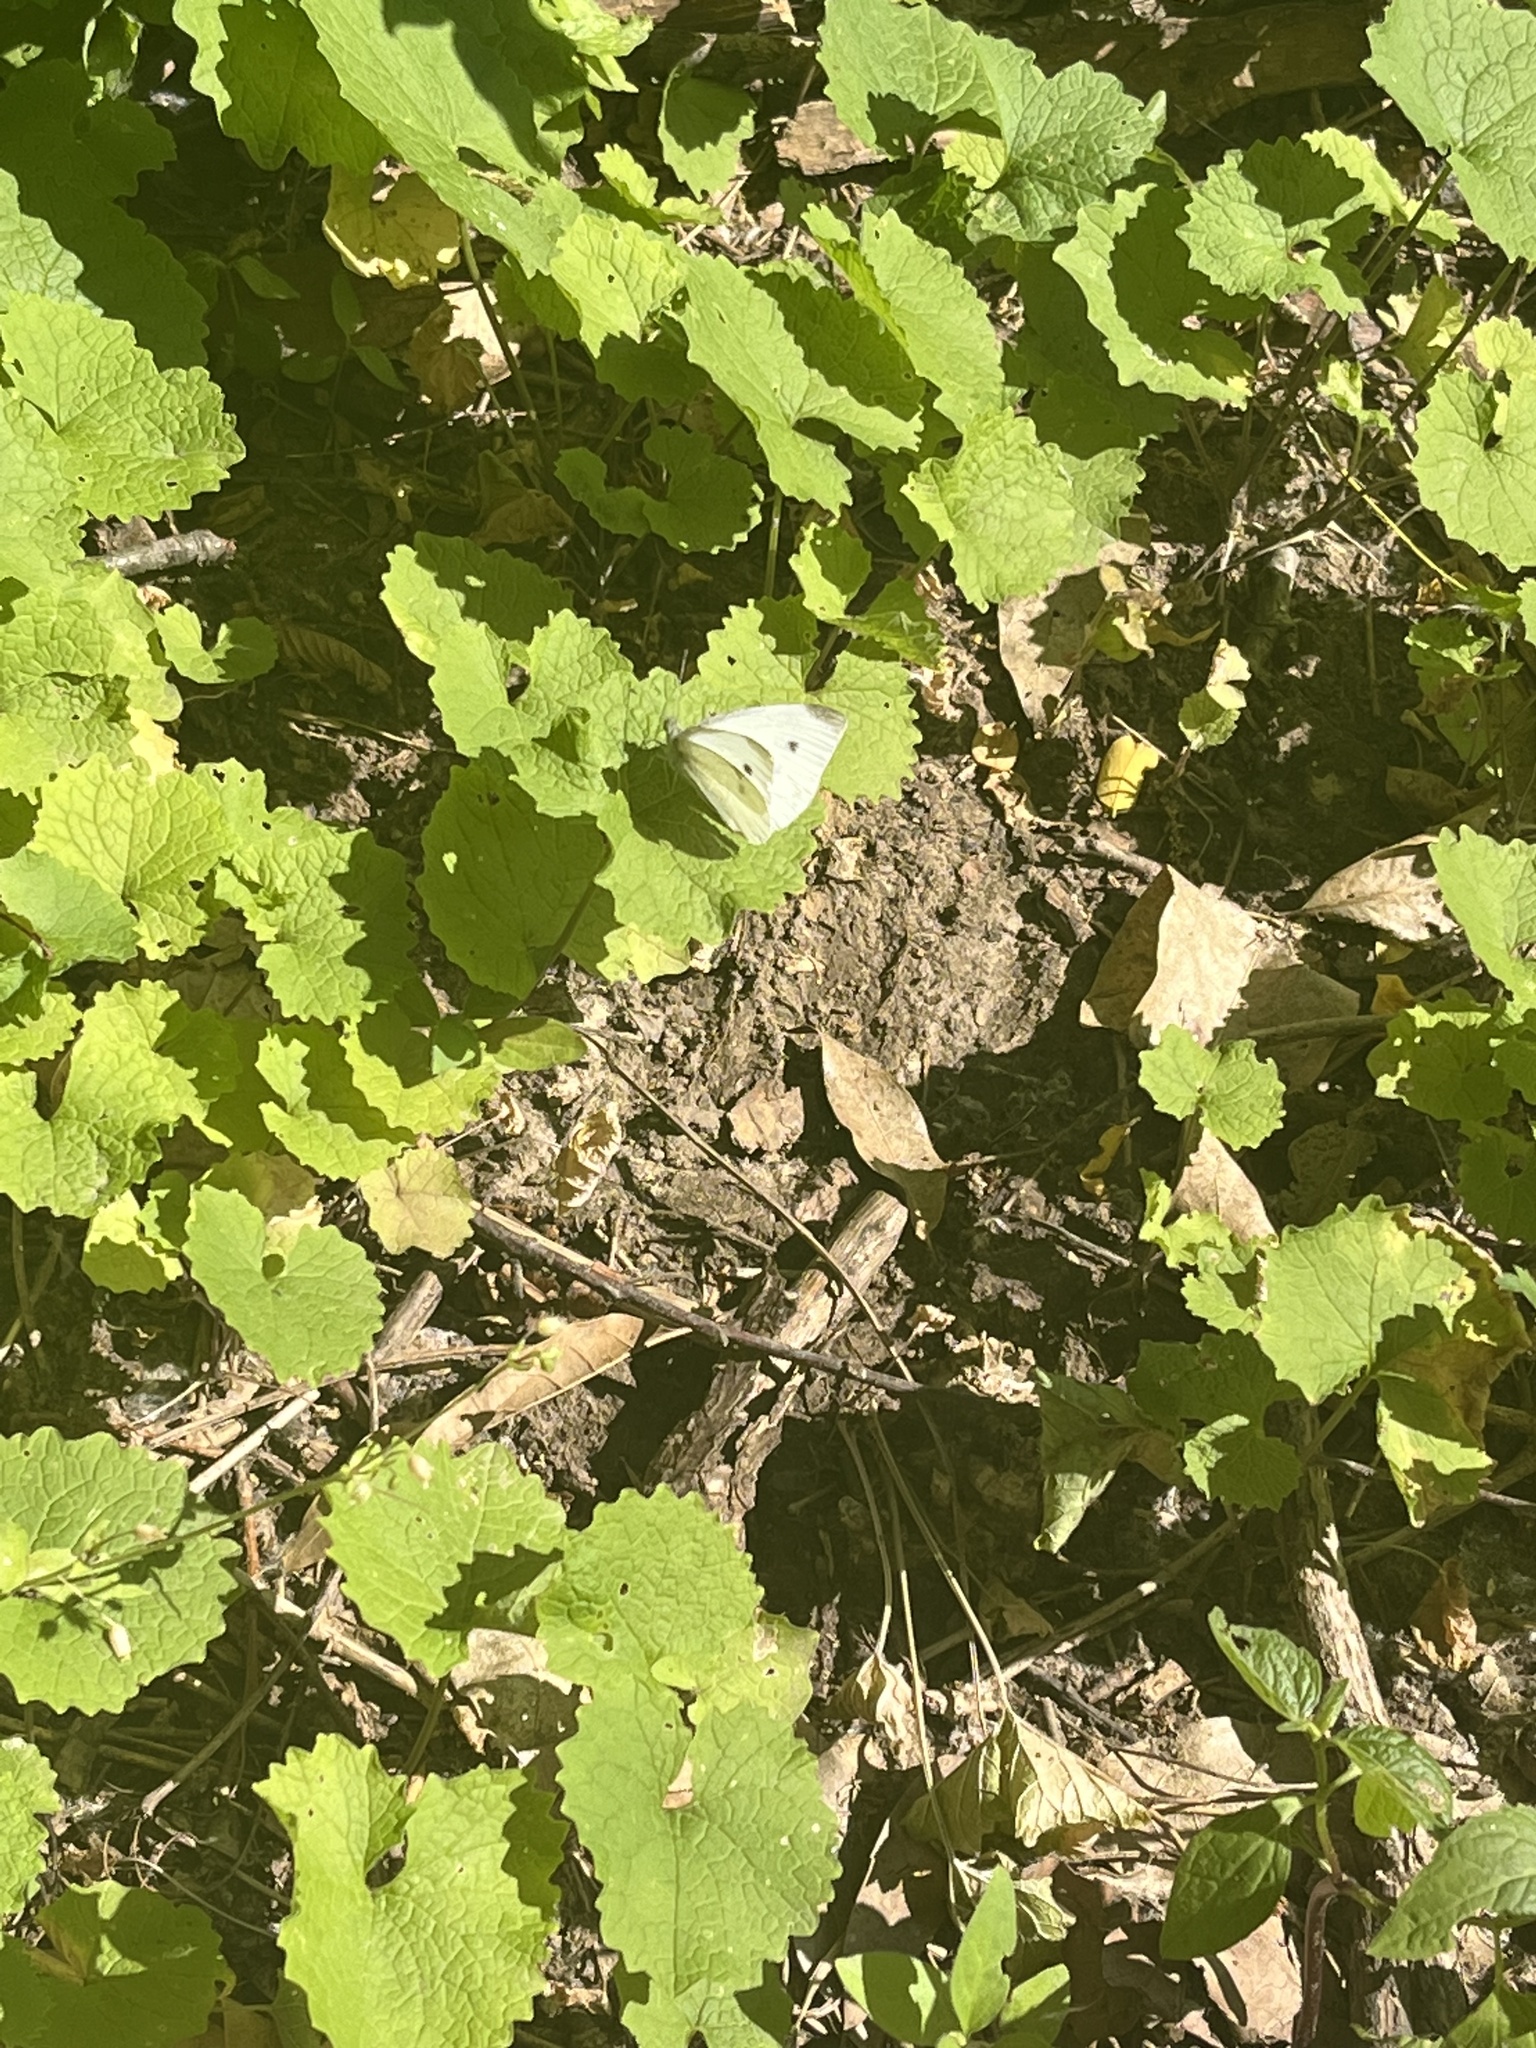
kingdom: Animalia
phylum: Arthropoda
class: Insecta
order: Lepidoptera
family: Pieridae
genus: Pieris
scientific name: Pieris rapae
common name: Small white
